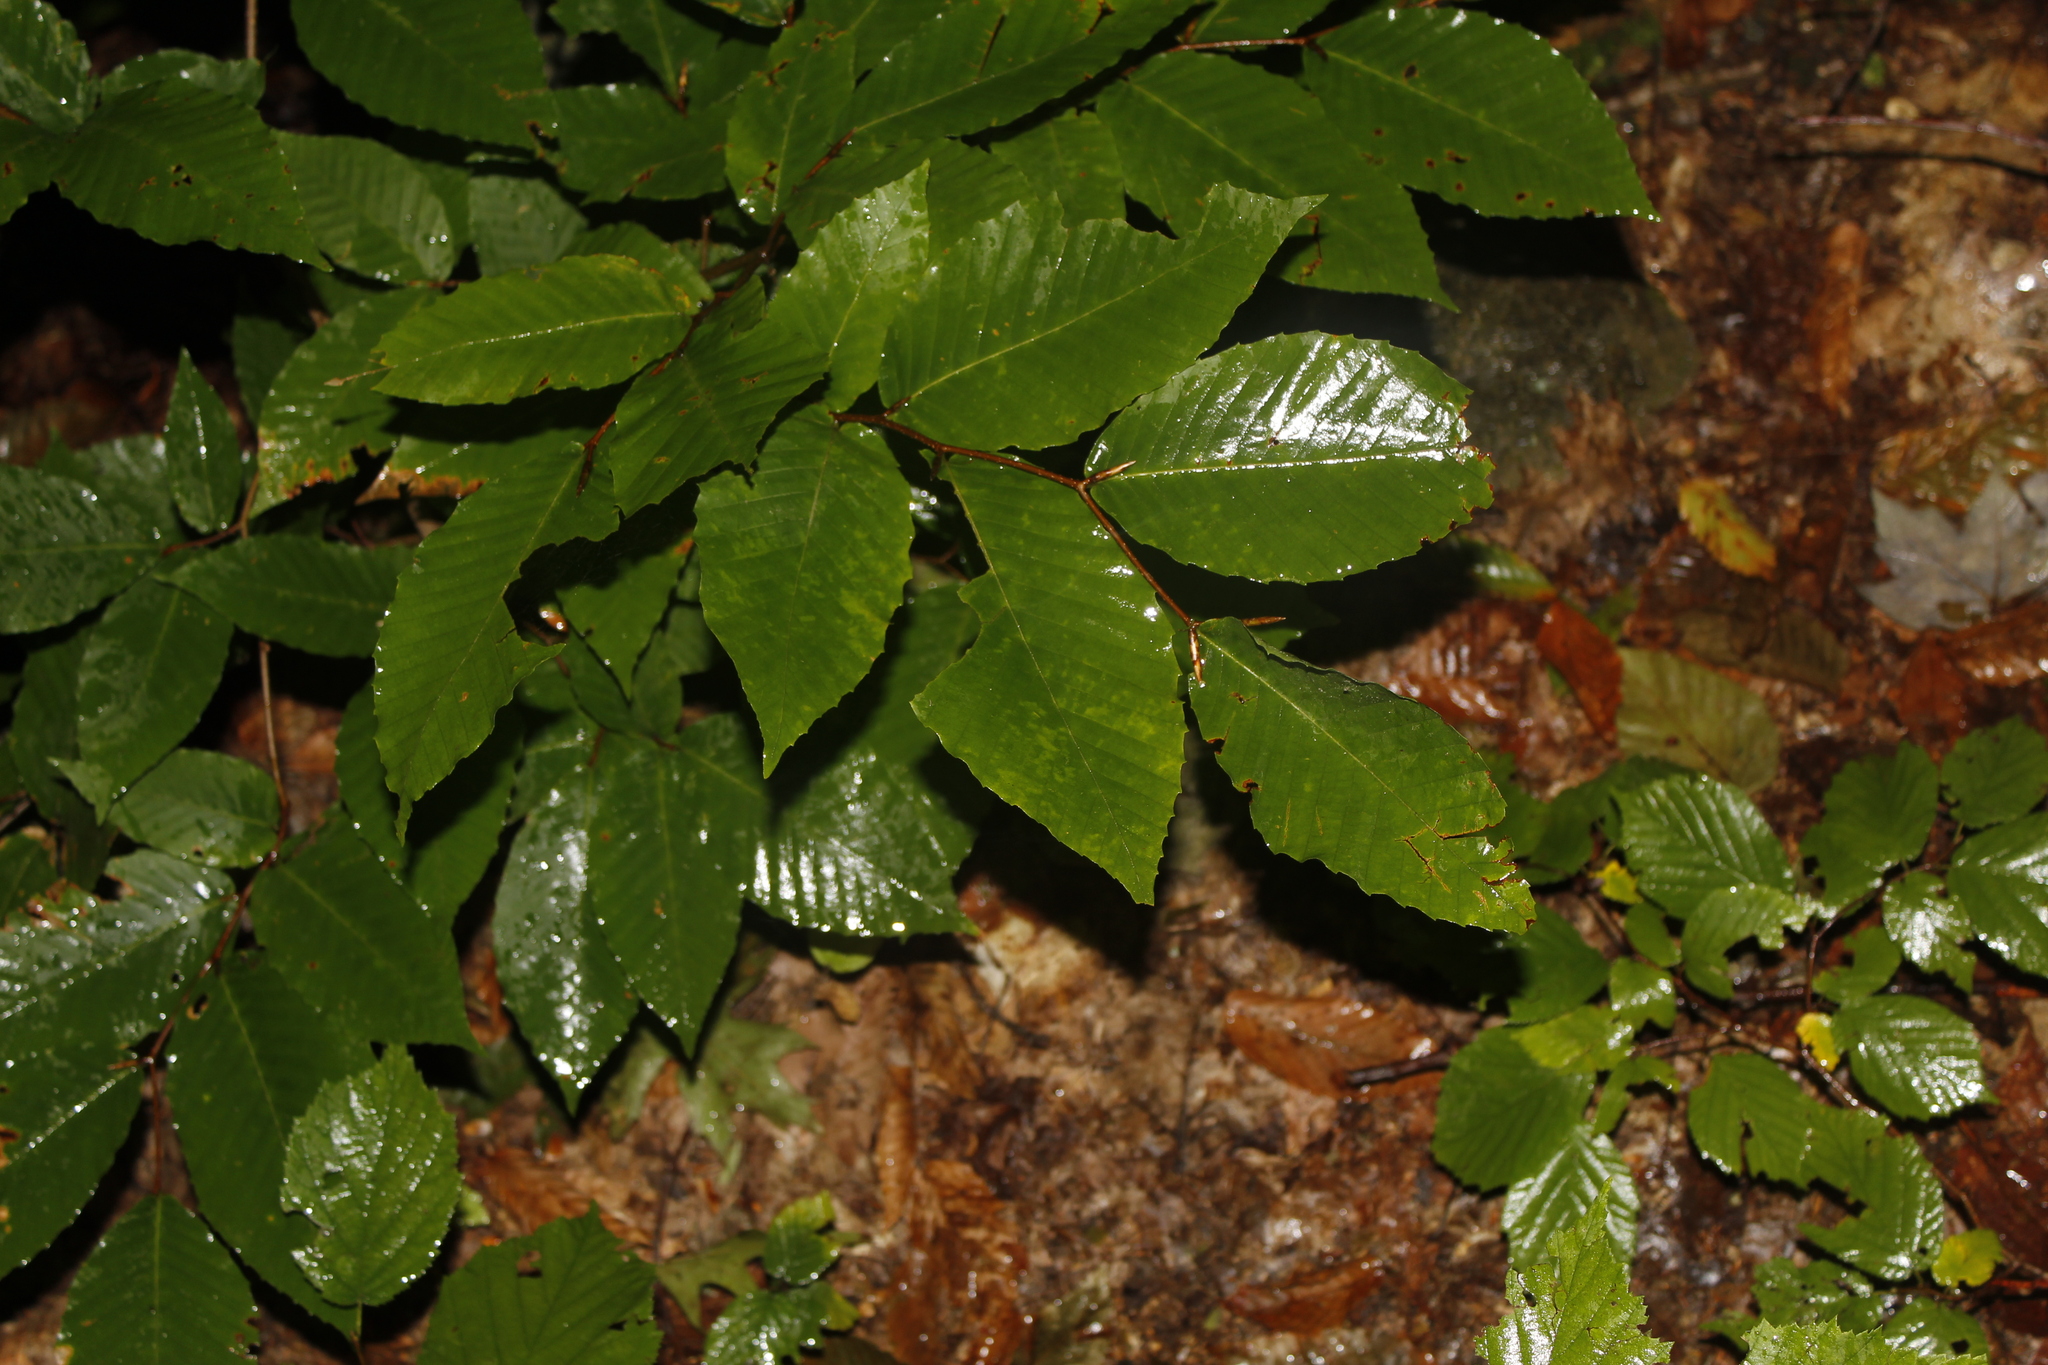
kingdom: Plantae
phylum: Tracheophyta
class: Magnoliopsida
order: Fagales
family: Fagaceae
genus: Fagus
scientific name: Fagus grandifolia
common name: American beech
